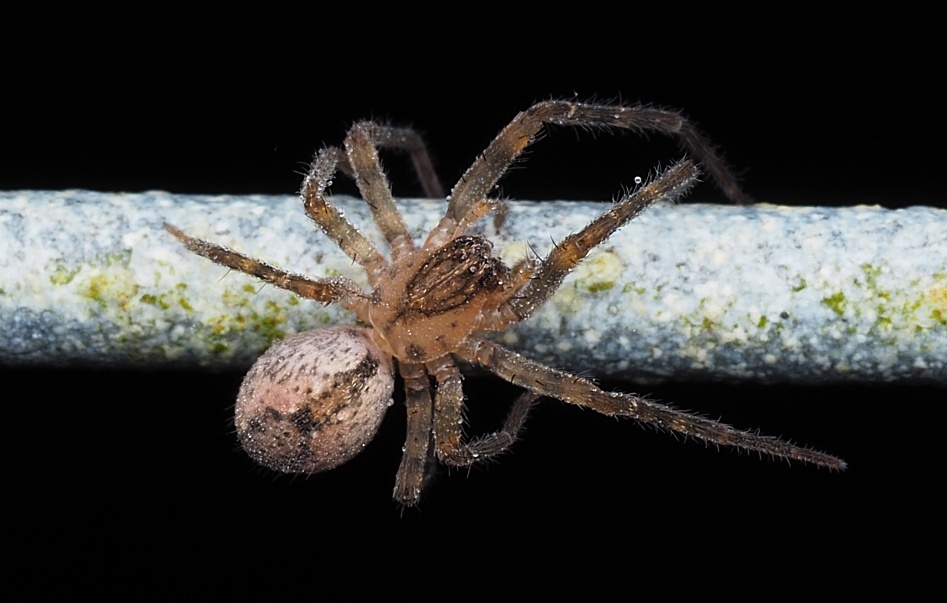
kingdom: Animalia
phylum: Arthropoda
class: Arachnida
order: Araneae
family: Desidae
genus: Nuisiana
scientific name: Nuisiana arboris
